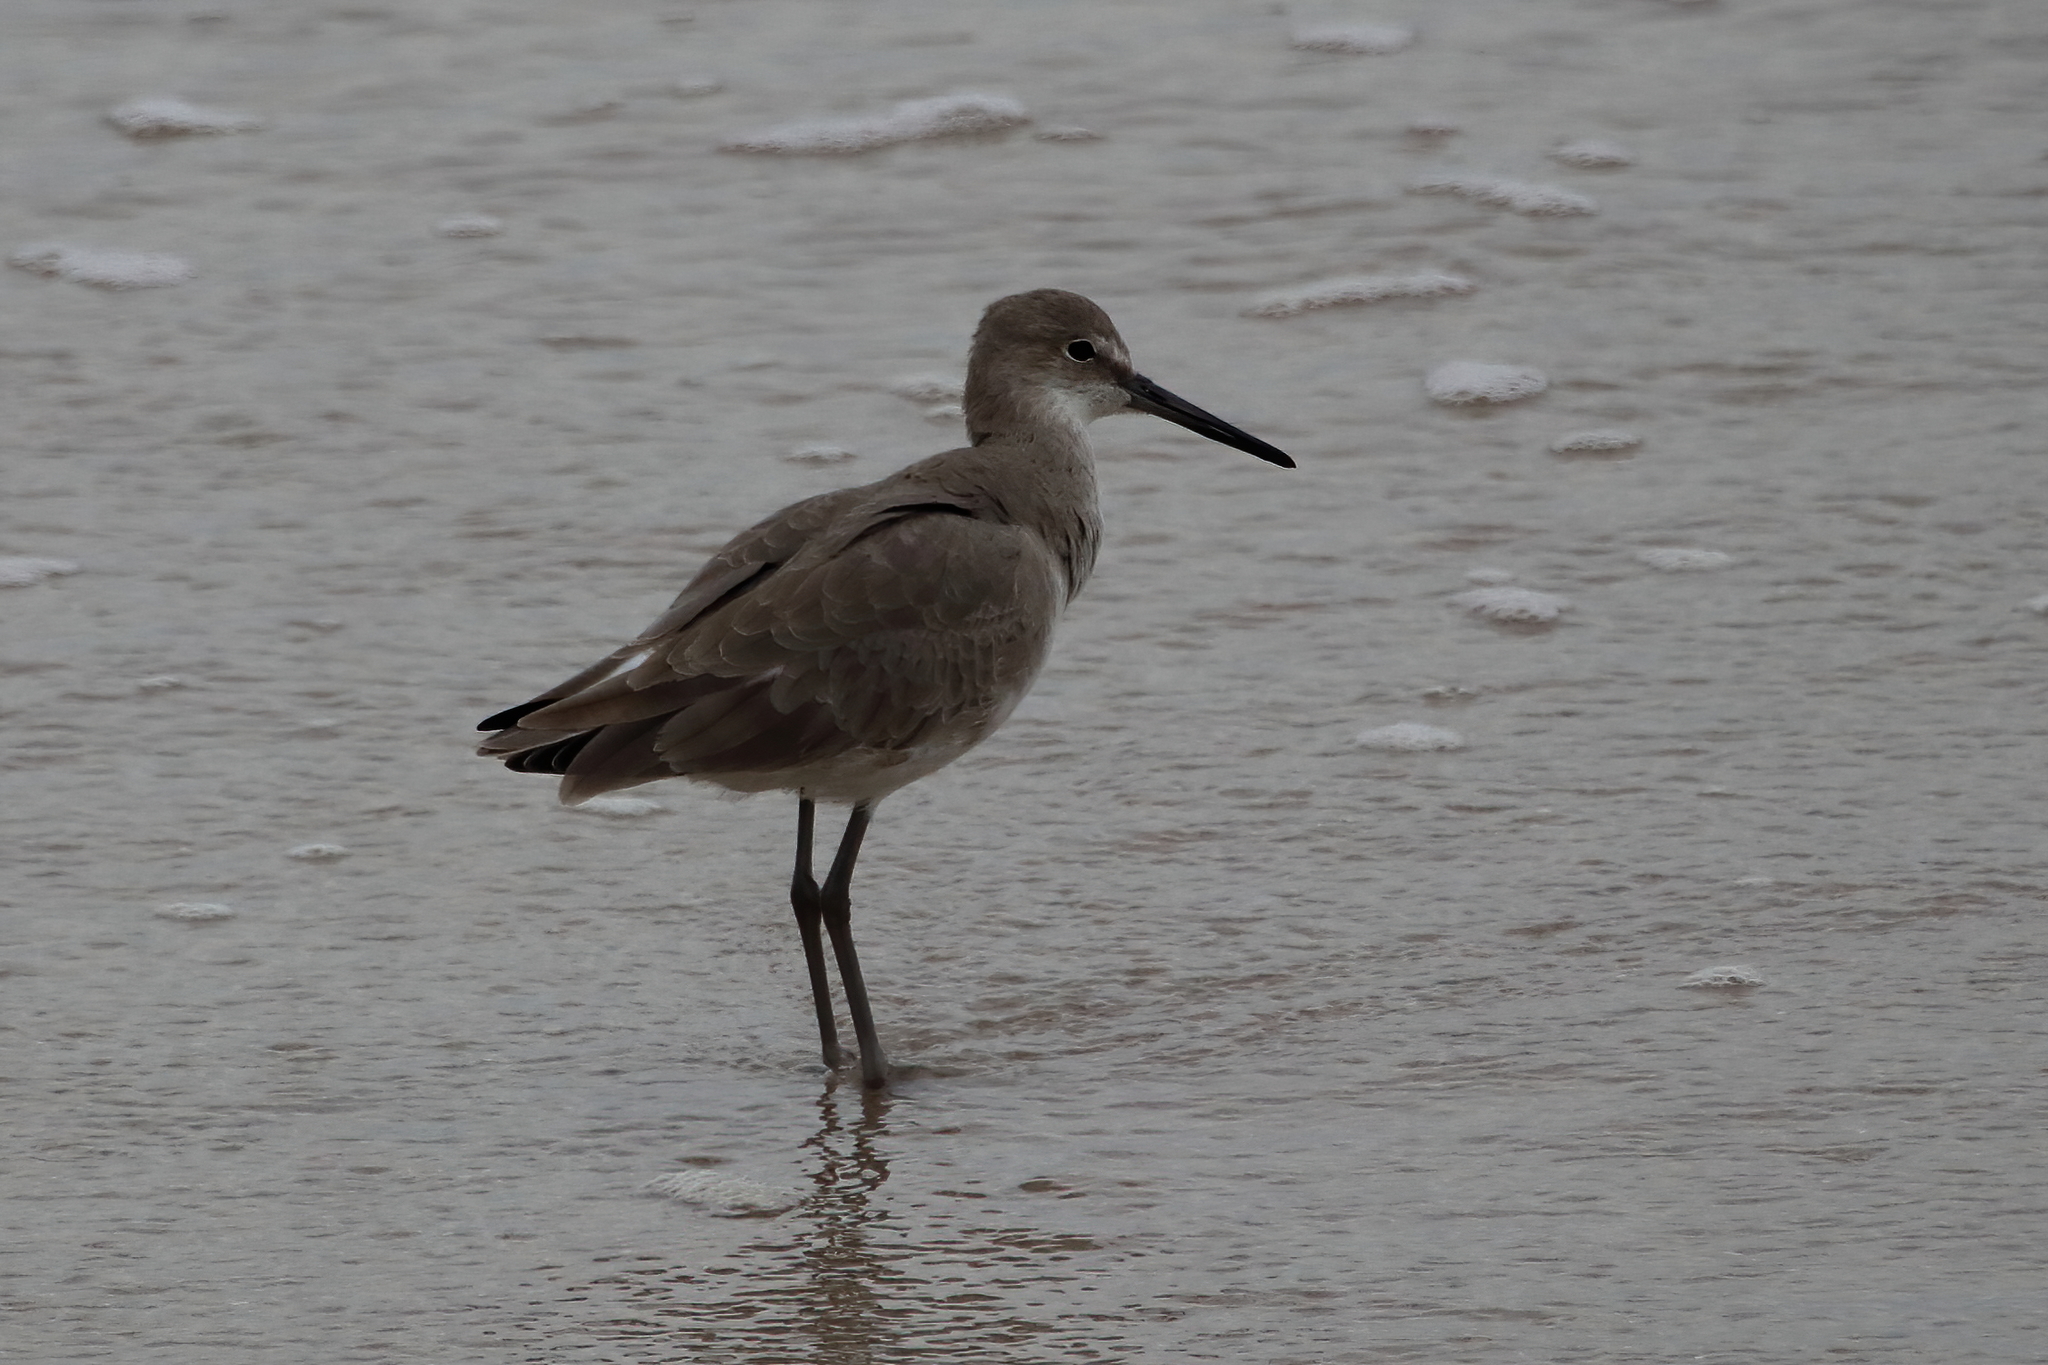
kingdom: Animalia
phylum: Chordata
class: Aves
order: Charadriiformes
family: Scolopacidae
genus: Tringa
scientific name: Tringa semipalmata
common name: Willet
